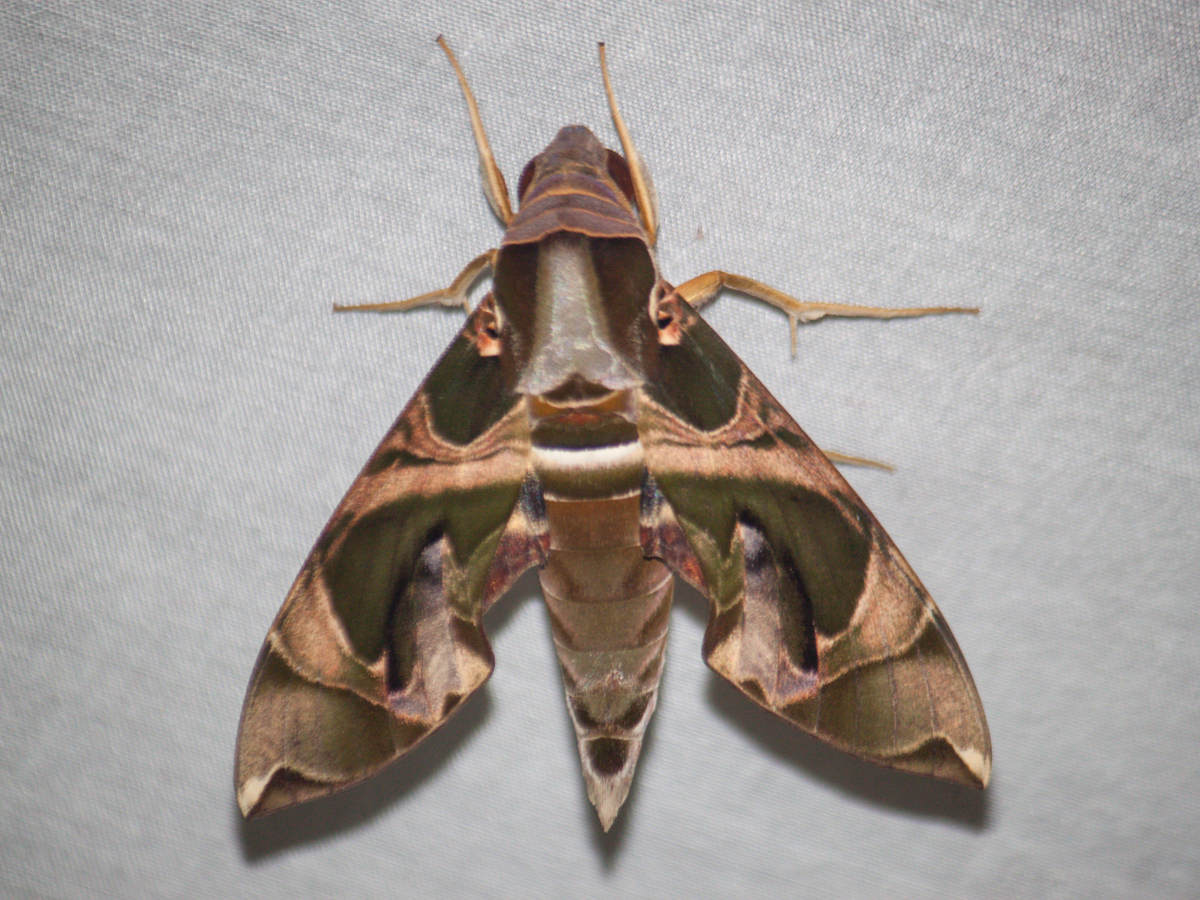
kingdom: Animalia
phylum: Arthropoda
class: Insecta
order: Lepidoptera
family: Sphingidae
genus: Daphnis
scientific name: Daphnis hypothous
